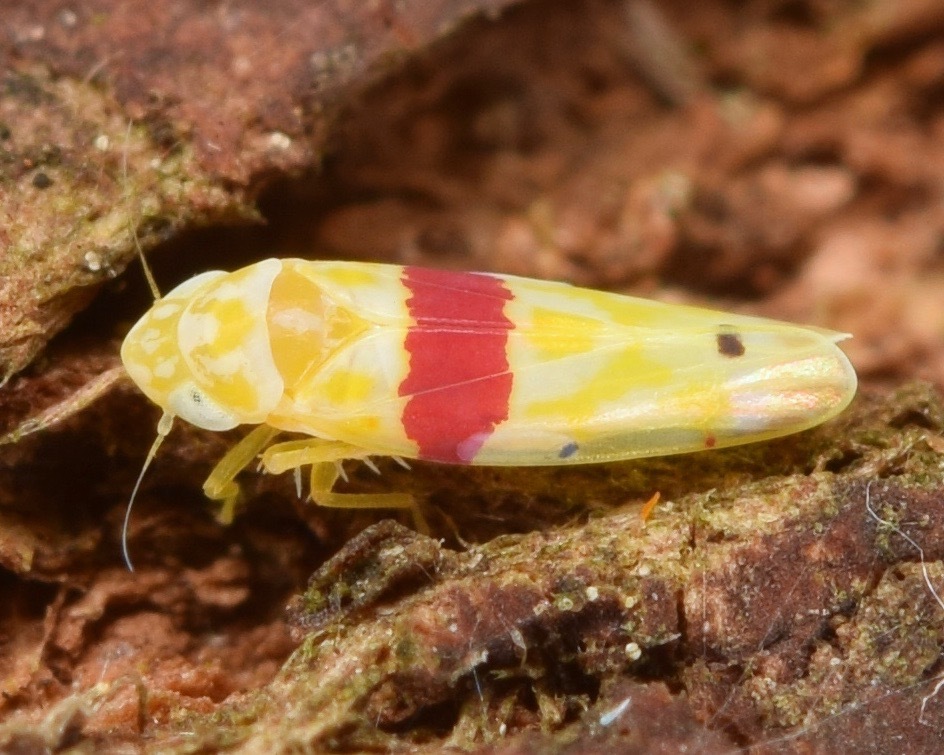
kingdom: Animalia
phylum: Arthropoda
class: Insecta
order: Hemiptera
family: Cicadellidae
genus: Eratoneura
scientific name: Eratoneura era
